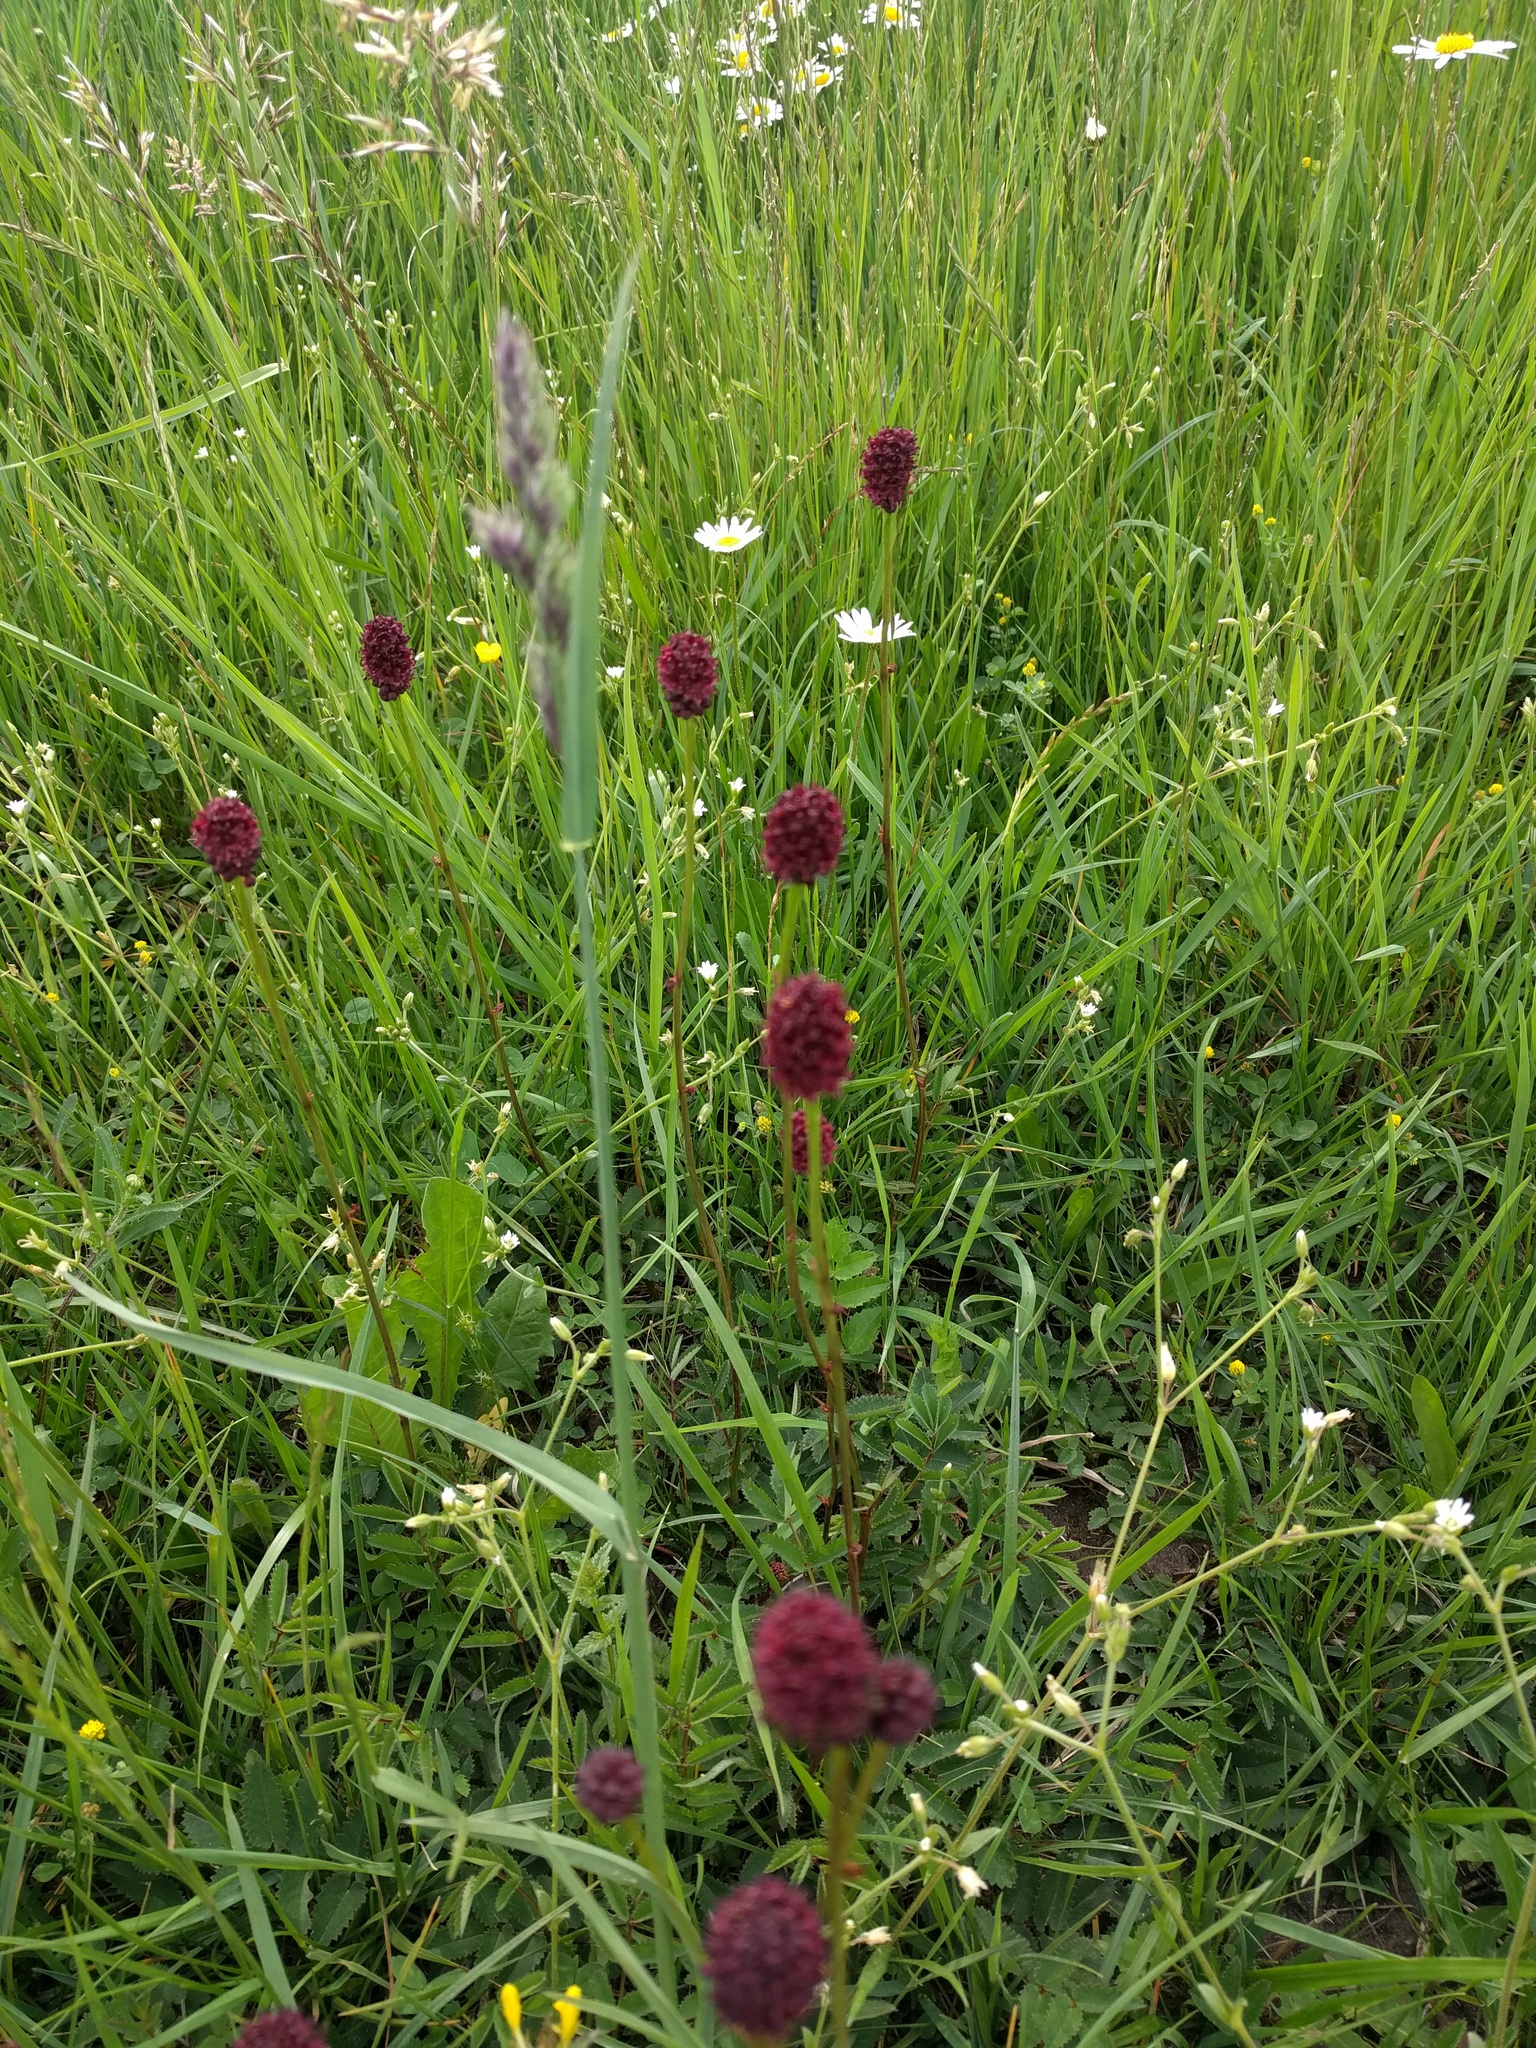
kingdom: Plantae
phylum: Tracheophyta
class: Magnoliopsida
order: Rosales
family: Rosaceae
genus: Sanguisorba
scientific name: Sanguisorba officinalis
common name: Great burnet
